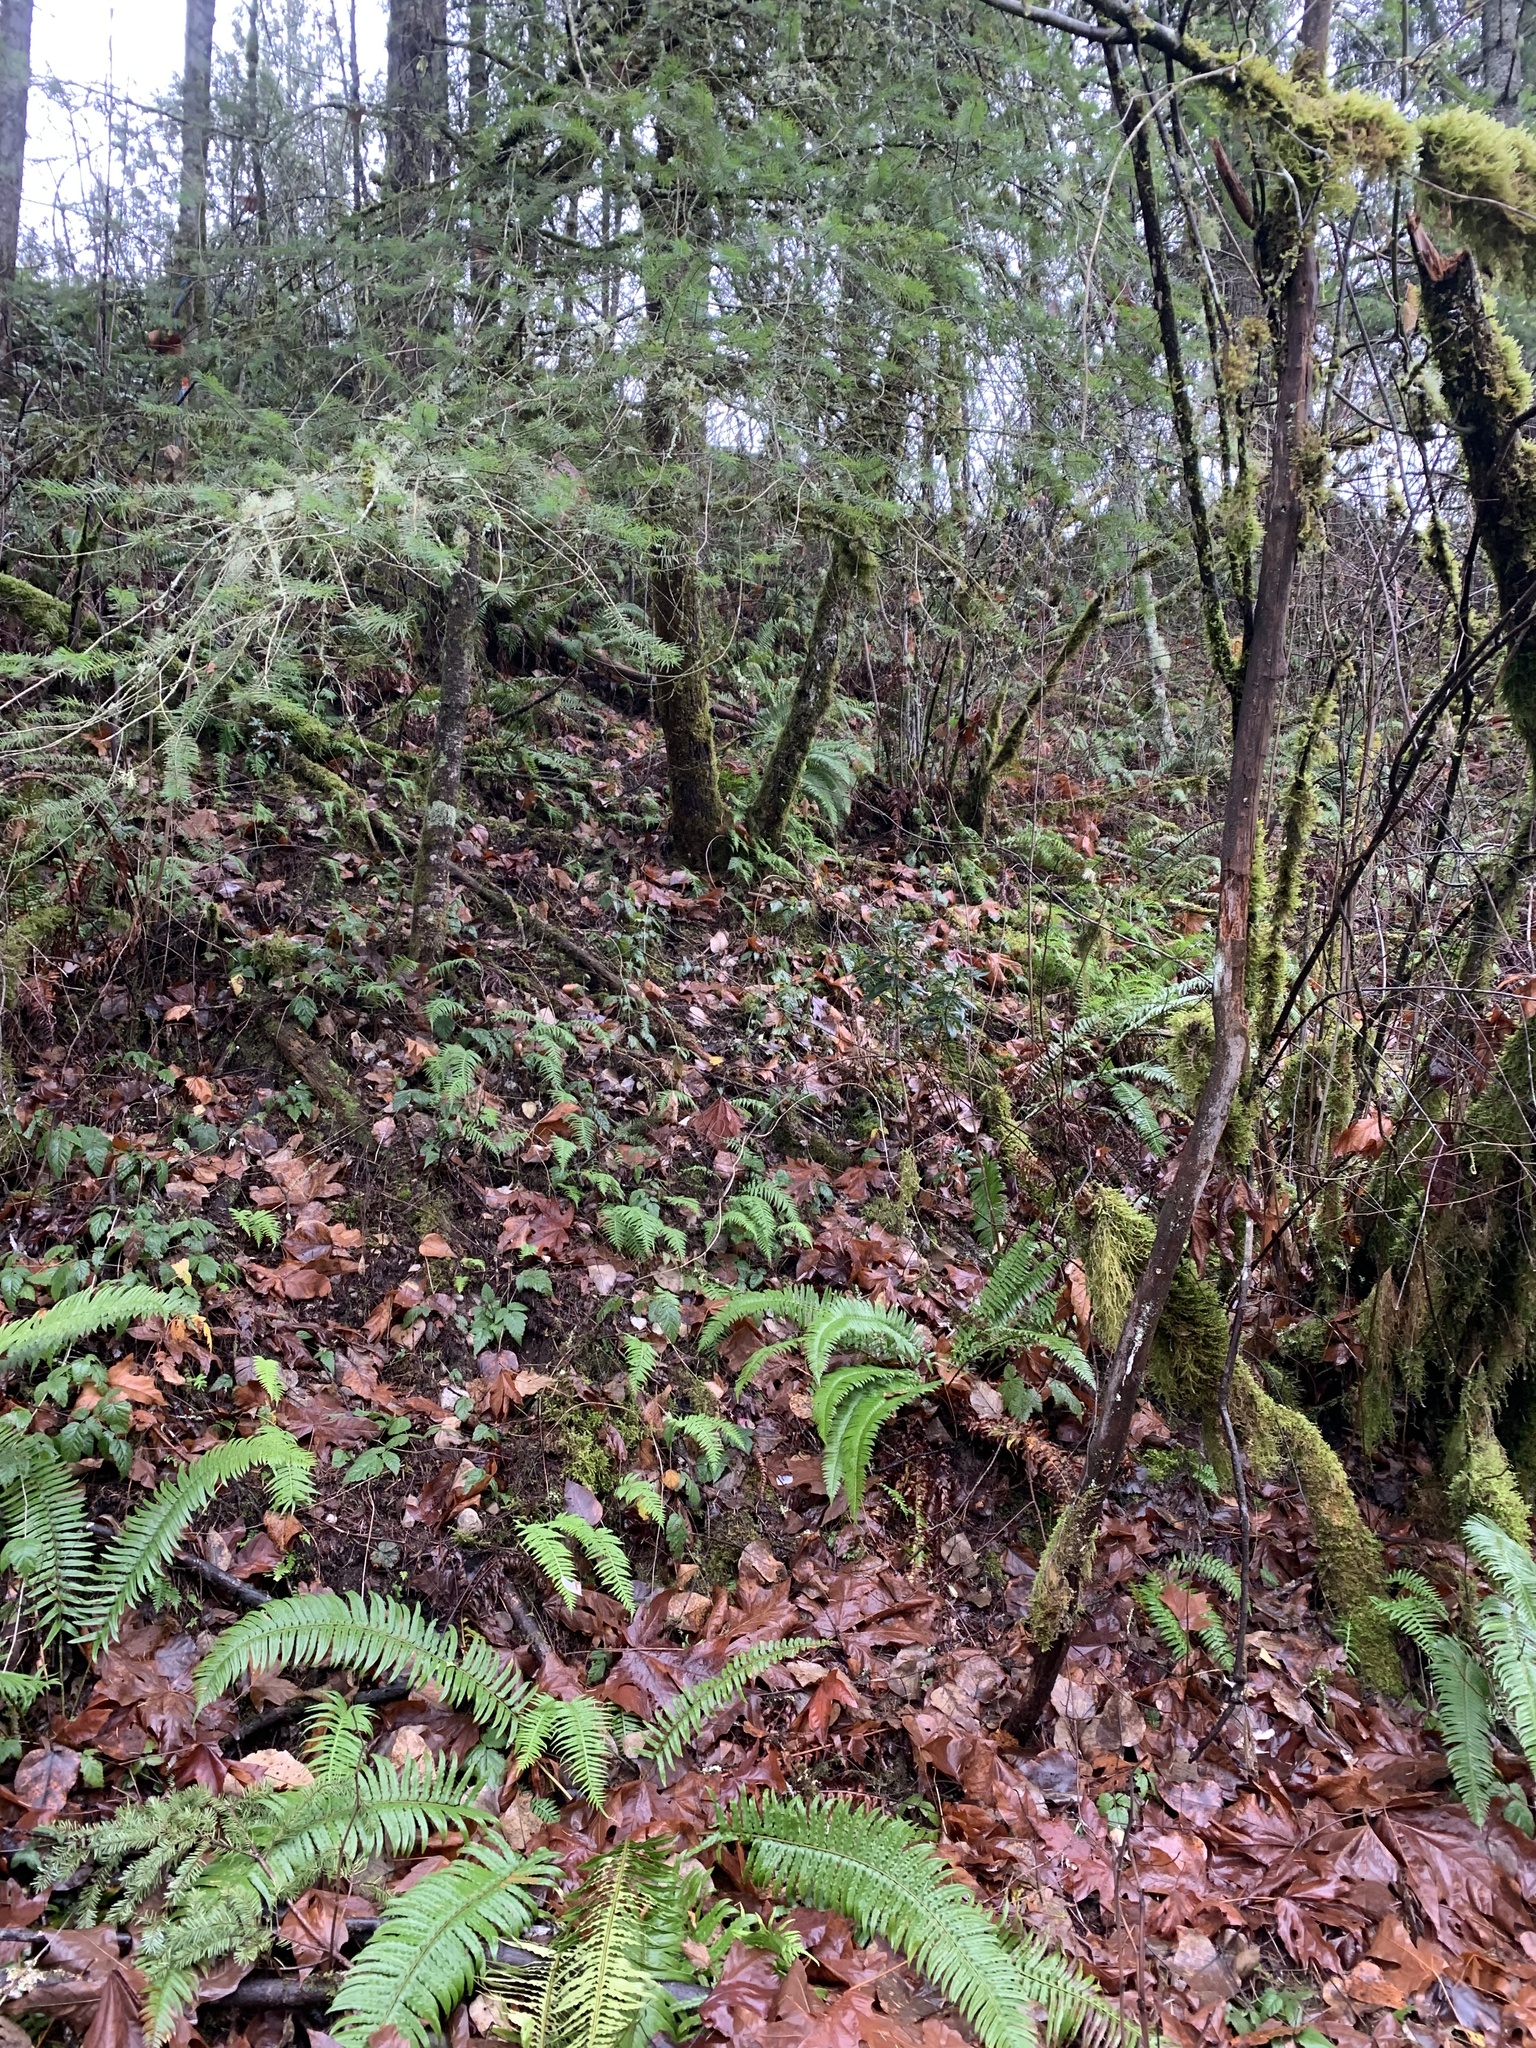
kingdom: Plantae
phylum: Tracheophyta
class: Magnoliopsida
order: Malvales
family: Thymelaeaceae
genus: Daphne
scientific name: Daphne laureola
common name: Spurge-laurel
